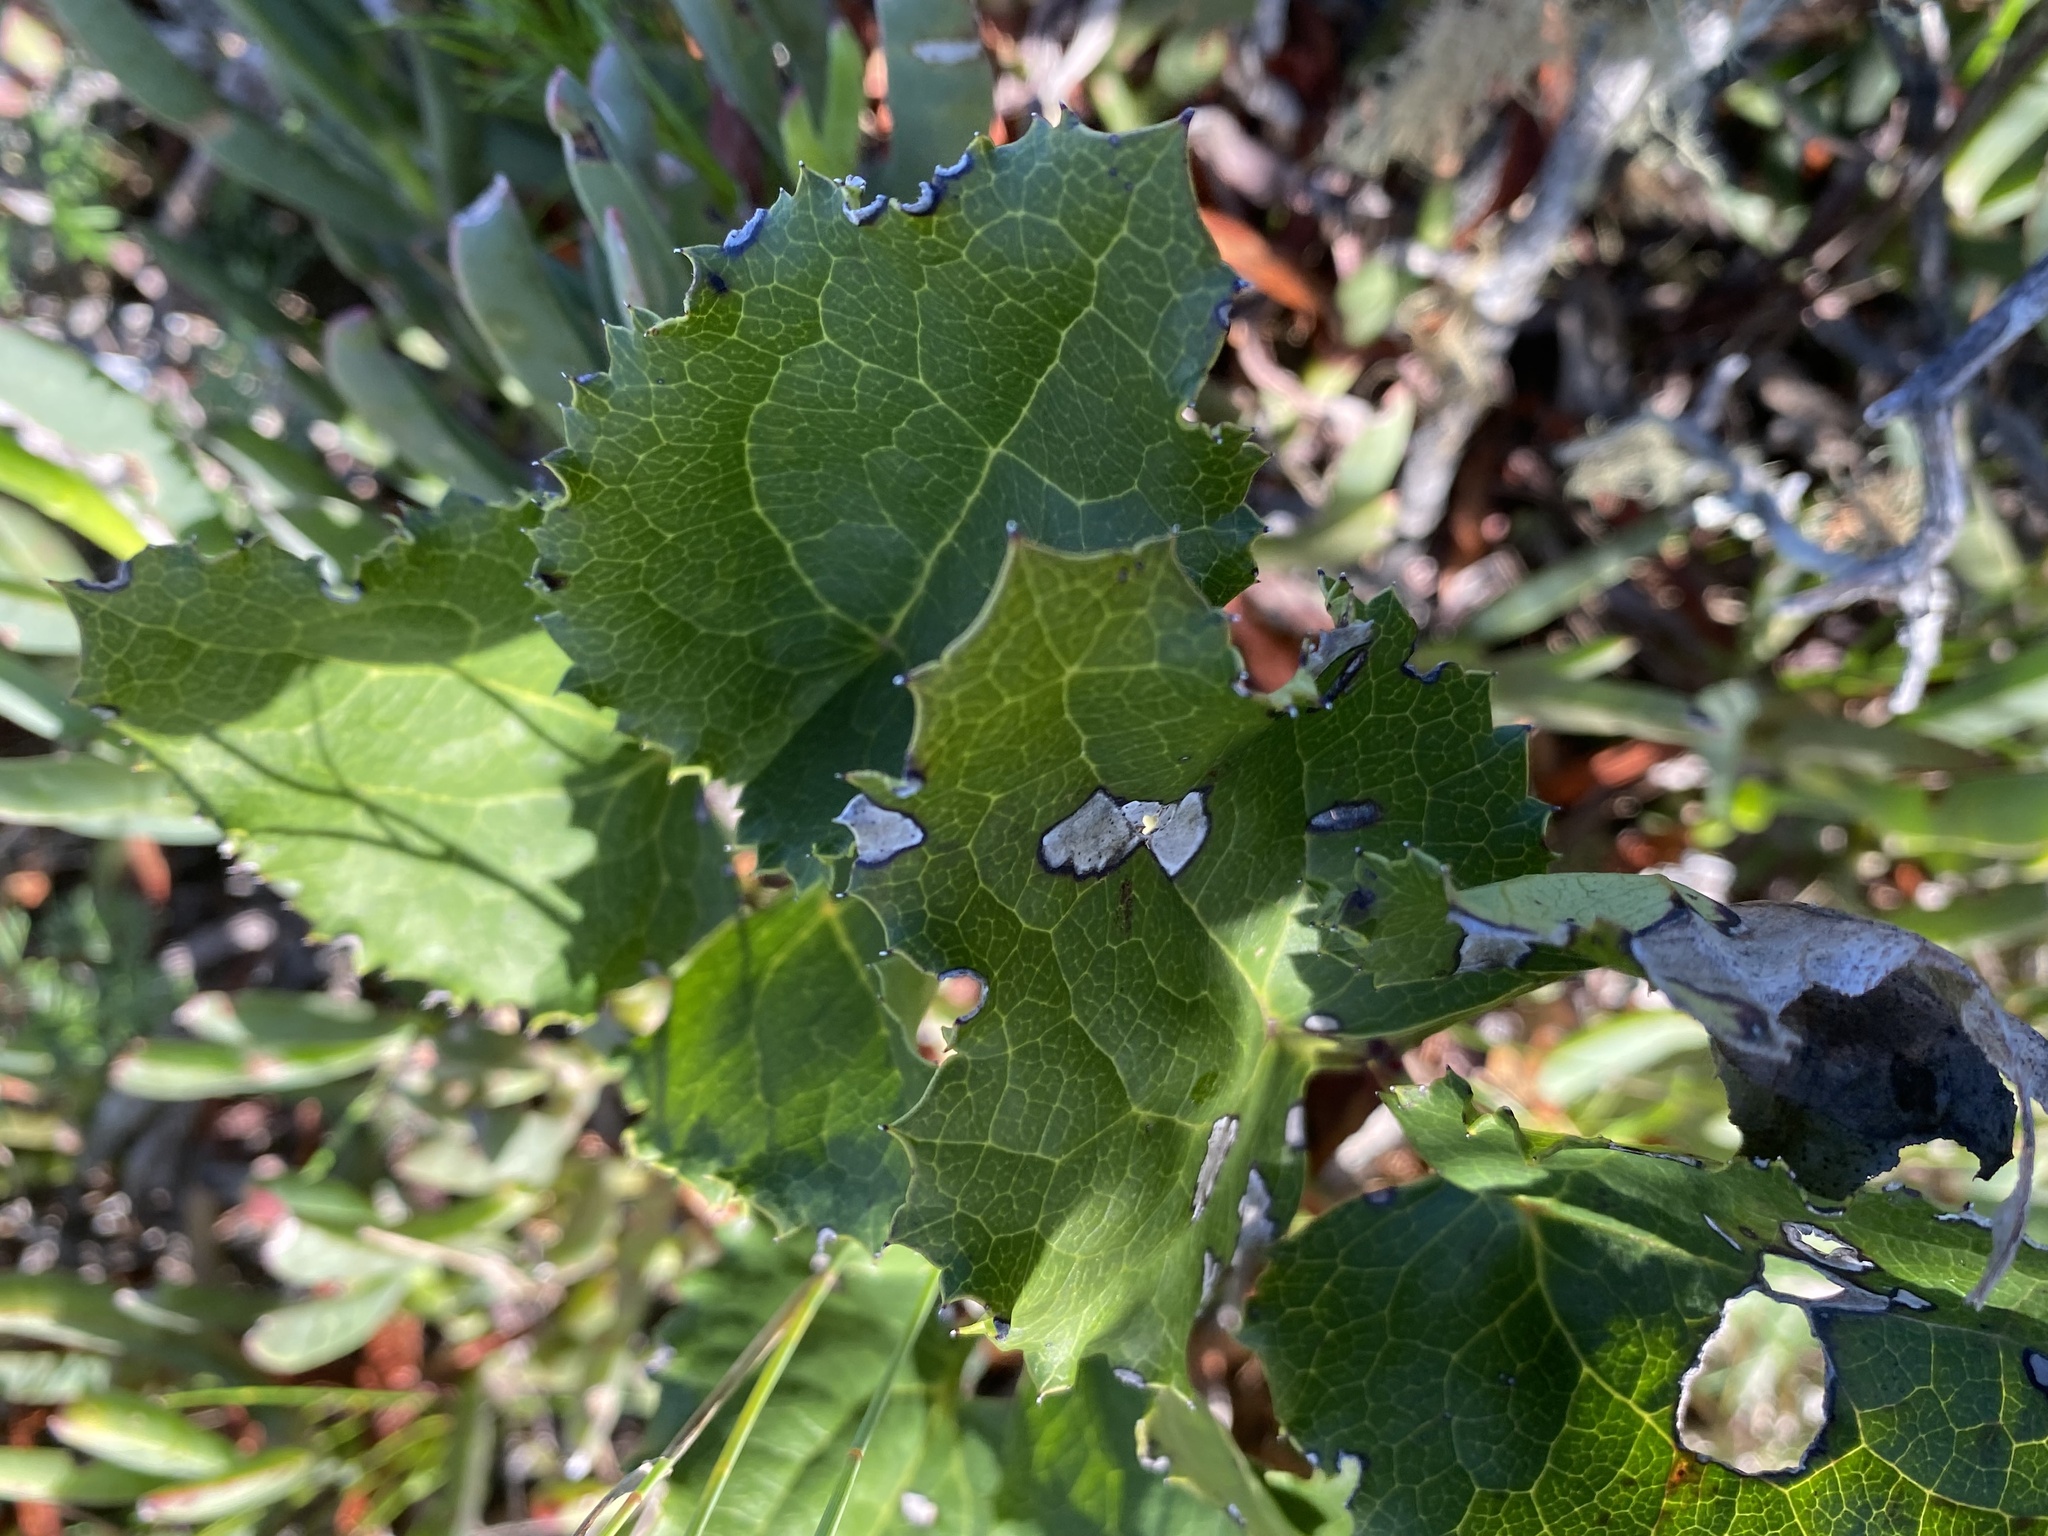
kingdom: Plantae
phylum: Tracheophyta
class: Magnoliopsida
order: Ranunculales
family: Ranunculaceae
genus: Knowltonia
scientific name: Knowltonia vesicatoria
